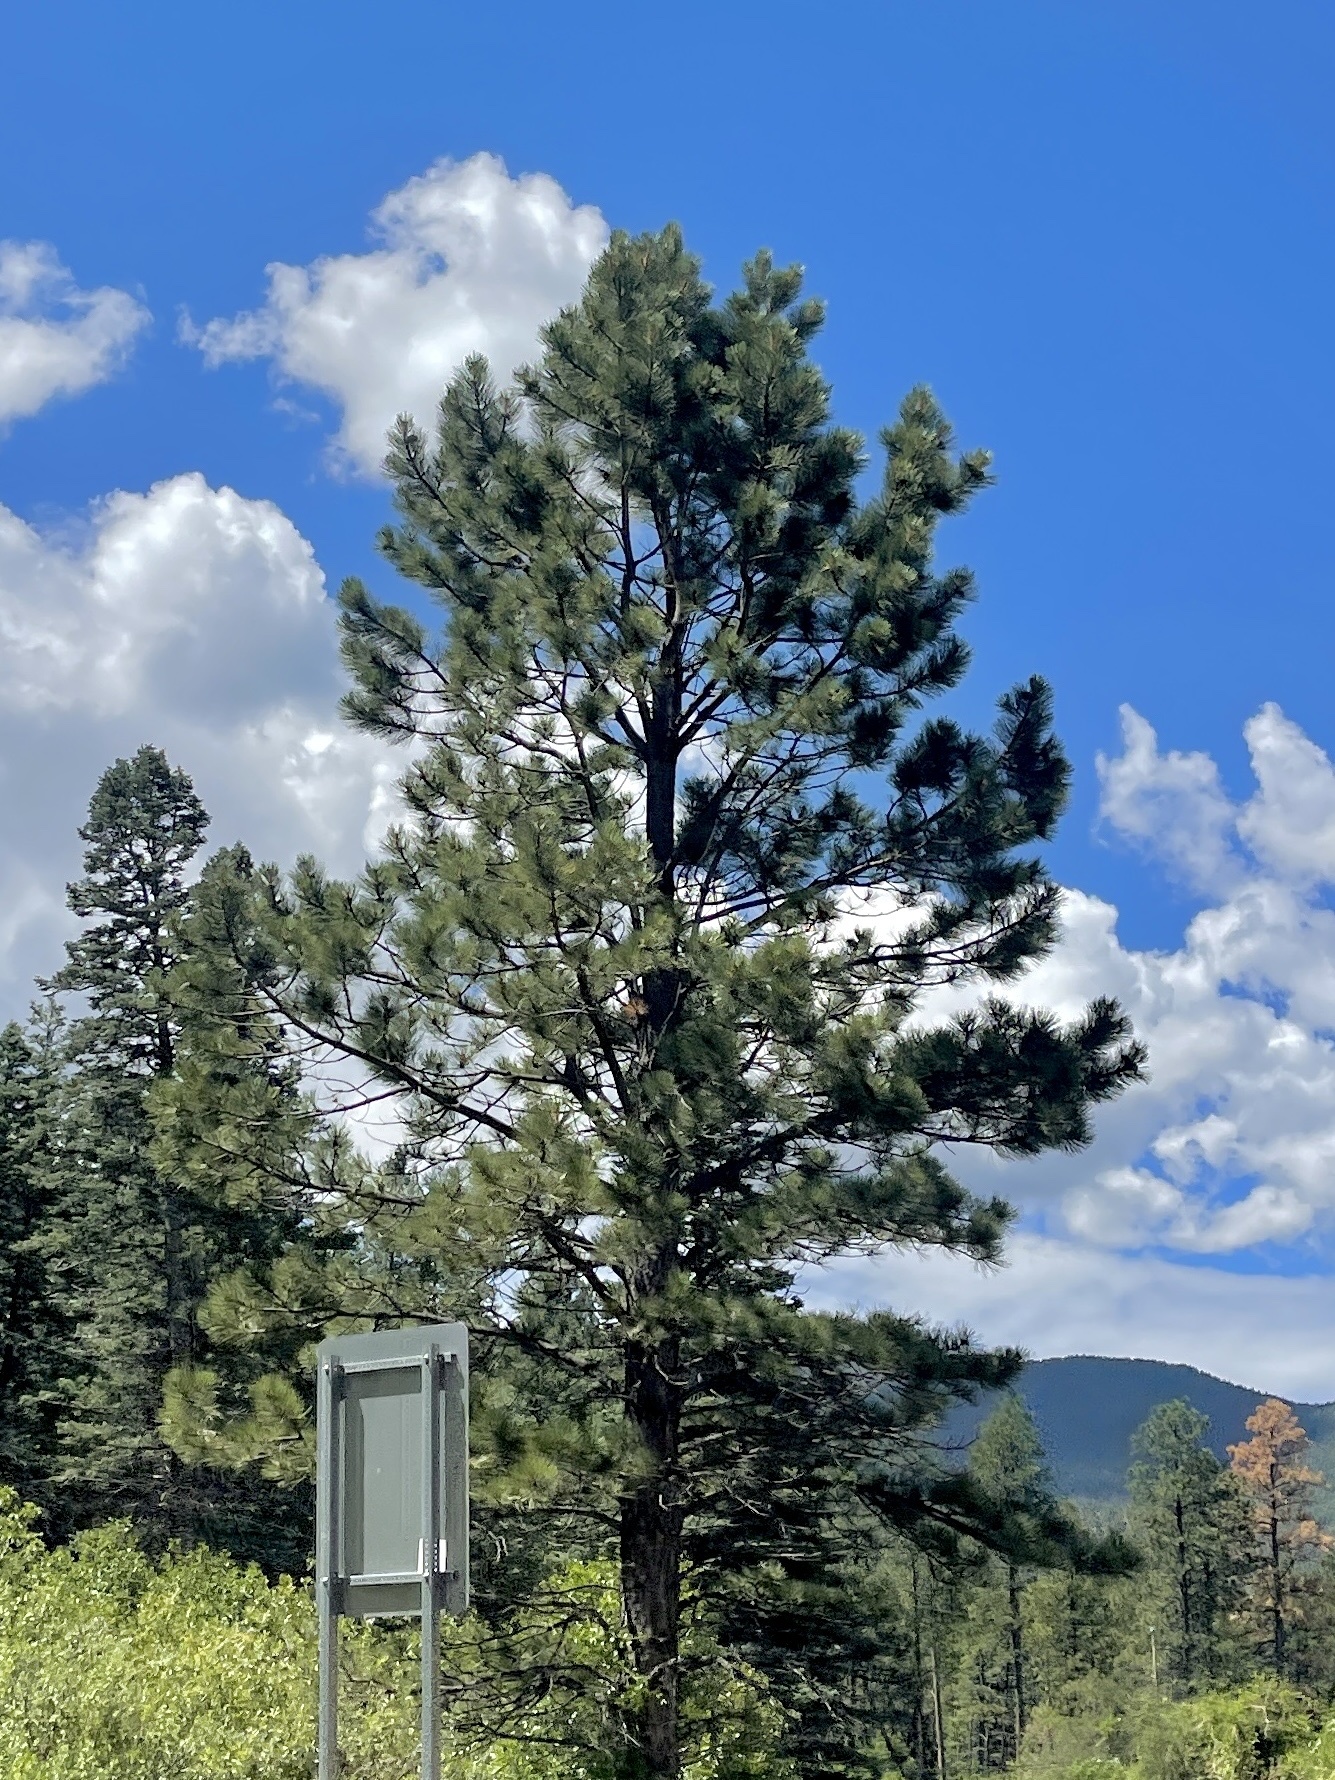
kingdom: Plantae
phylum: Tracheophyta
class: Pinopsida
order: Pinales
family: Pinaceae
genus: Pinus
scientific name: Pinus ponderosa
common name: Western yellow-pine
